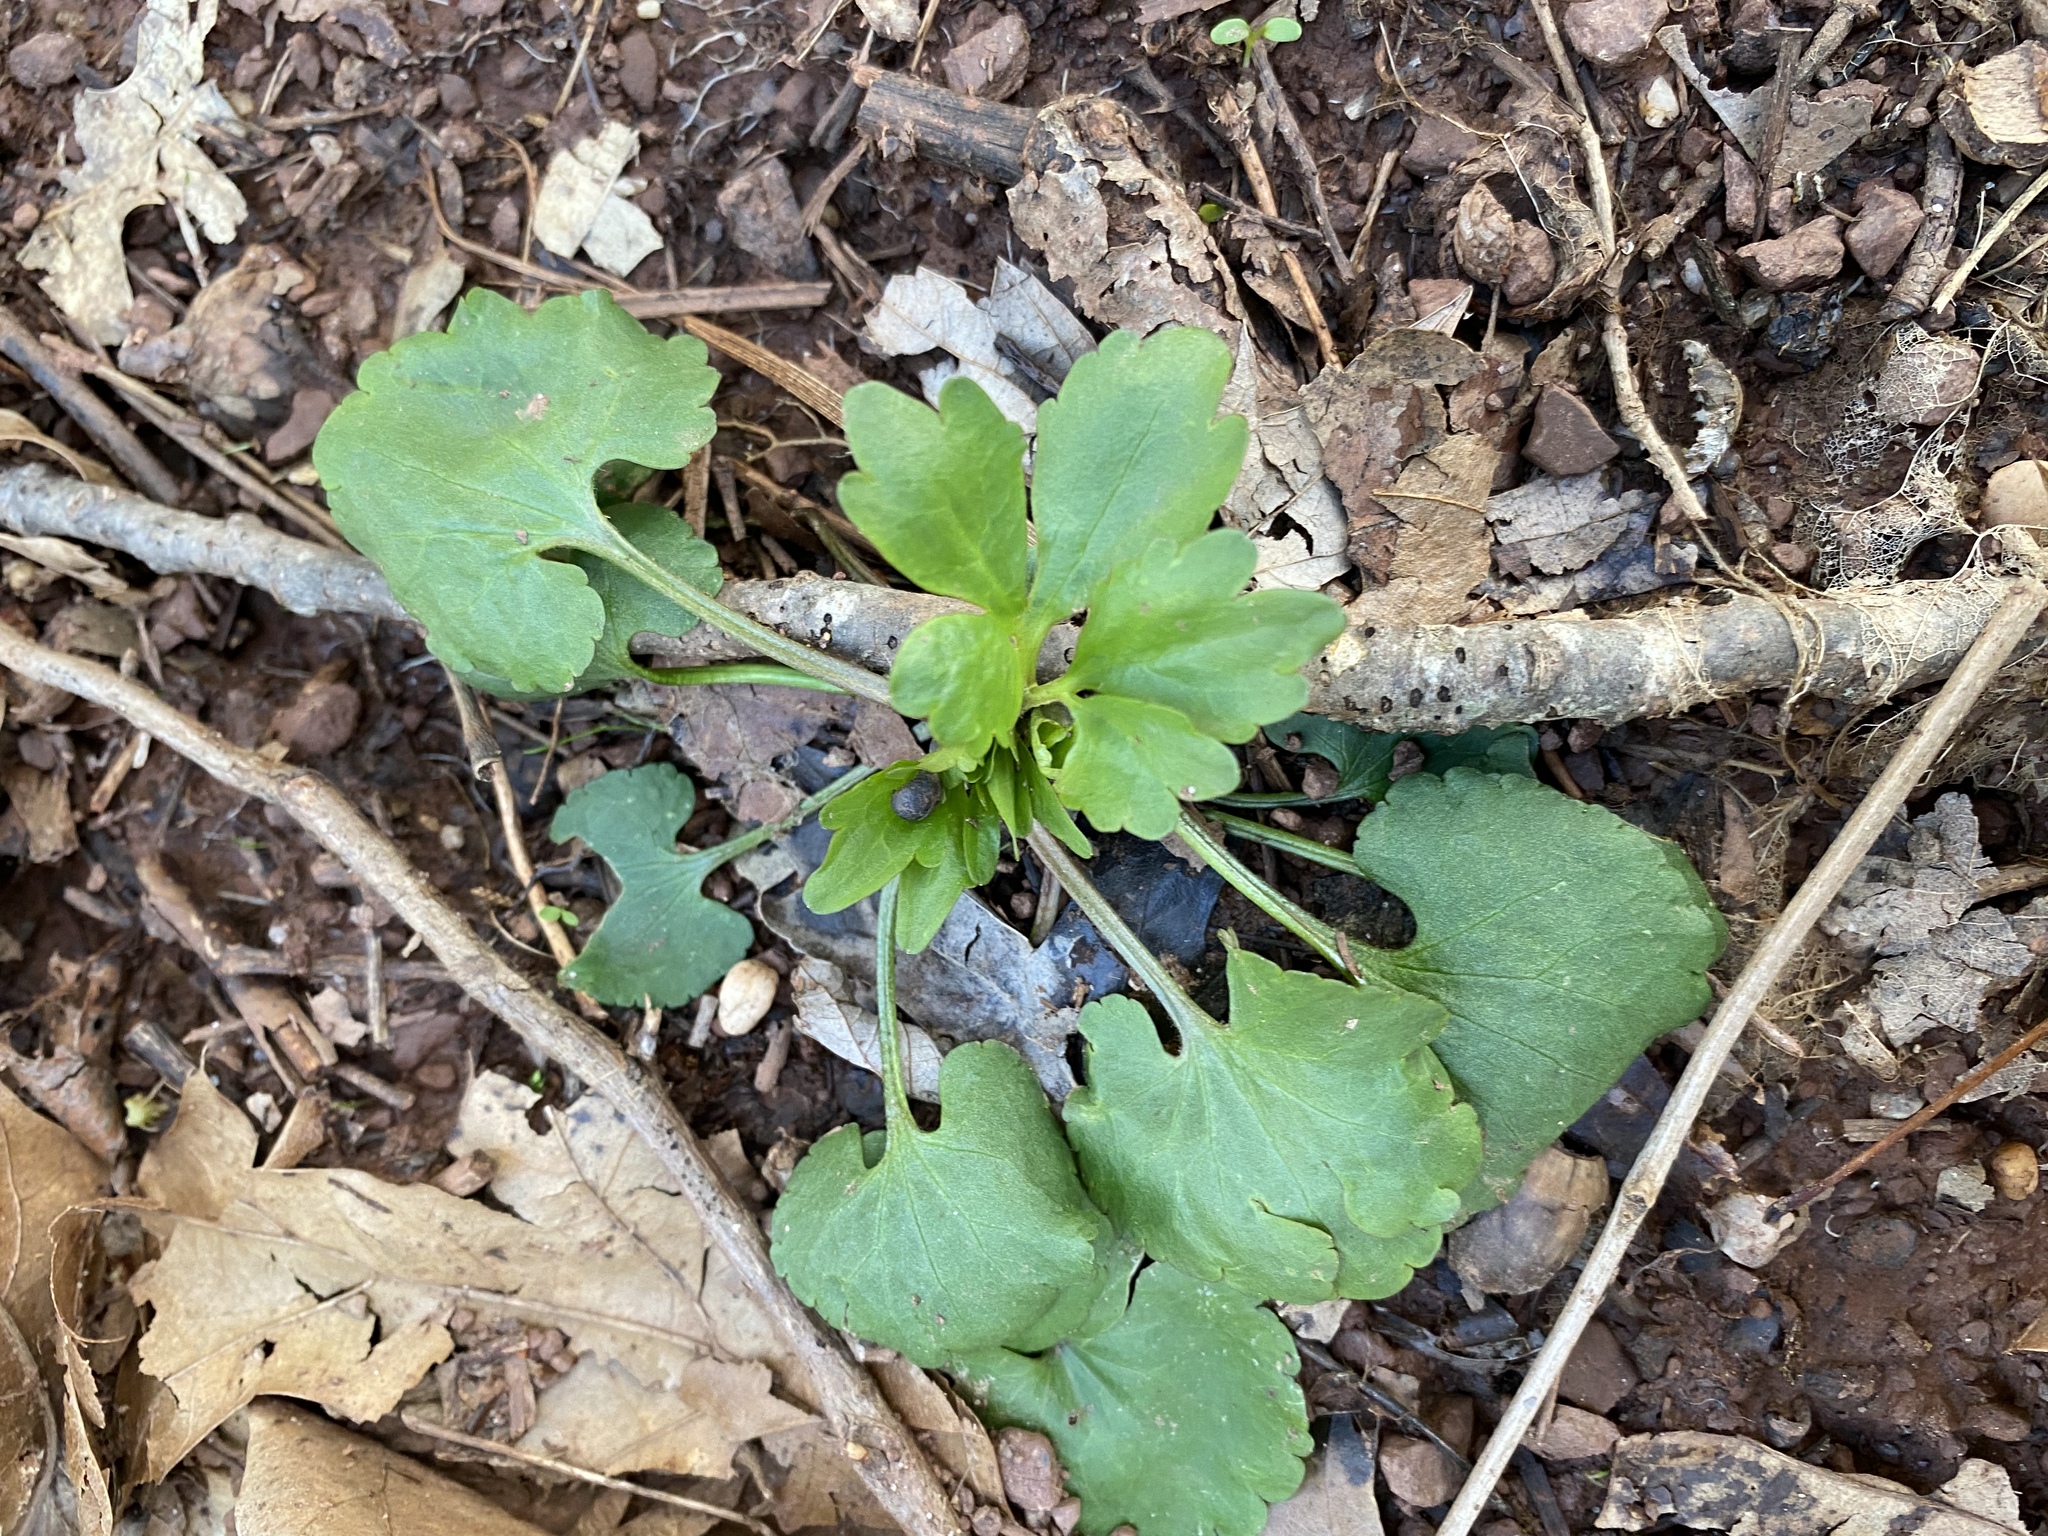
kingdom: Plantae
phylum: Tracheophyta
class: Magnoliopsida
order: Ranunculales
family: Ranunculaceae
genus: Ranunculus
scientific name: Ranunculus abortivus
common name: Early wood buttercup
